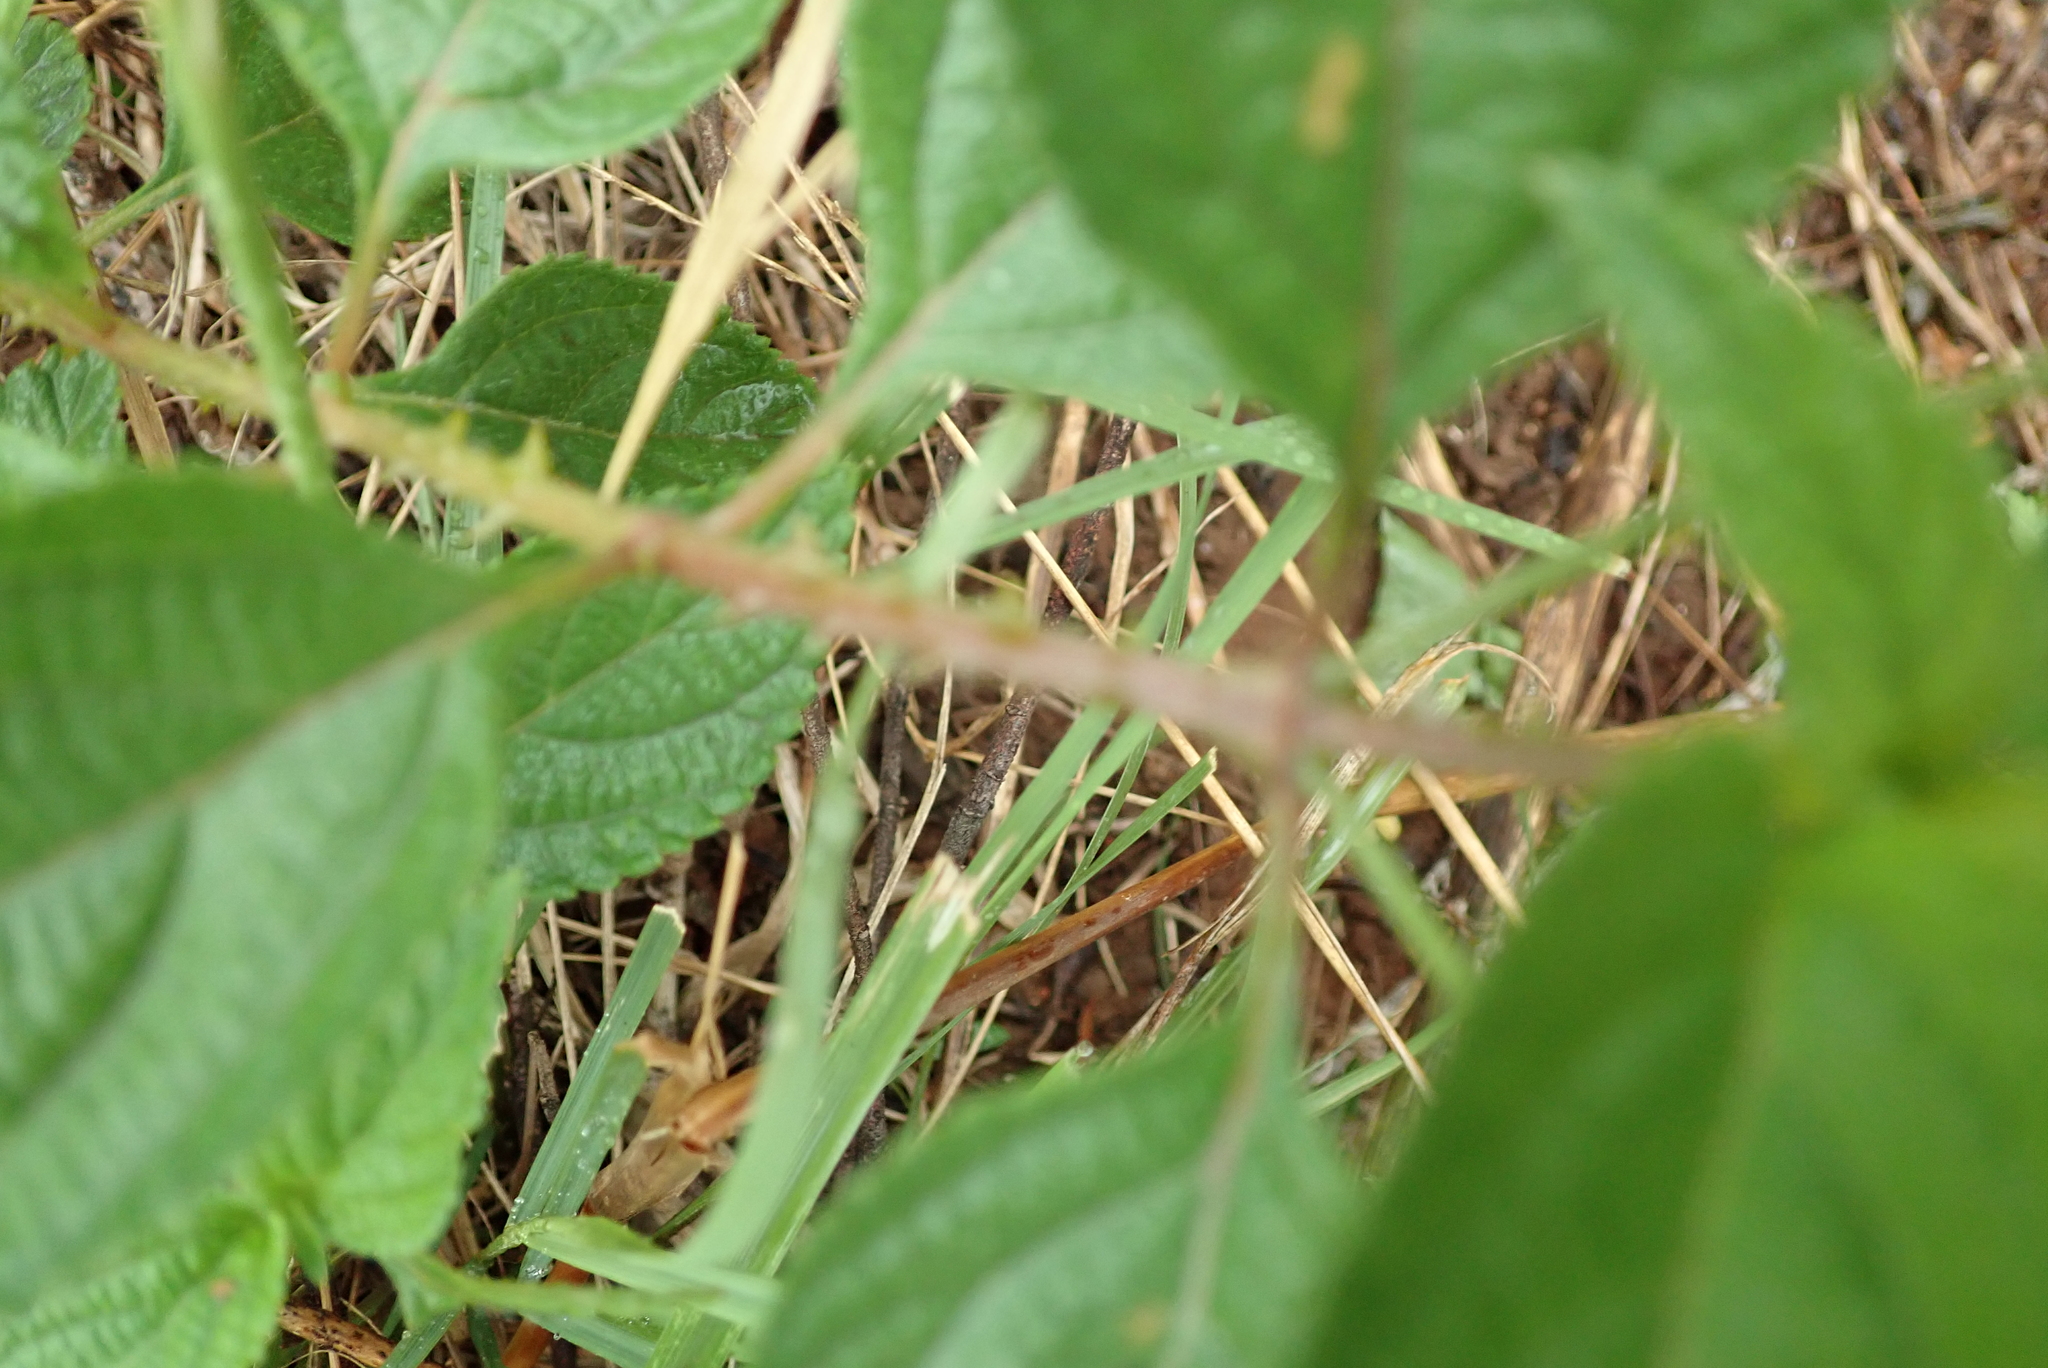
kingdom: Plantae
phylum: Tracheophyta
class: Magnoliopsida
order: Lamiales
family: Verbenaceae
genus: Lantana
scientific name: Lantana camara
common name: Lantana
